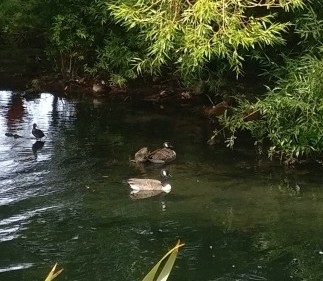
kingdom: Animalia
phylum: Chordata
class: Aves
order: Anseriformes
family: Anatidae
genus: Branta
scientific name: Branta canadensis
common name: Canada goose
